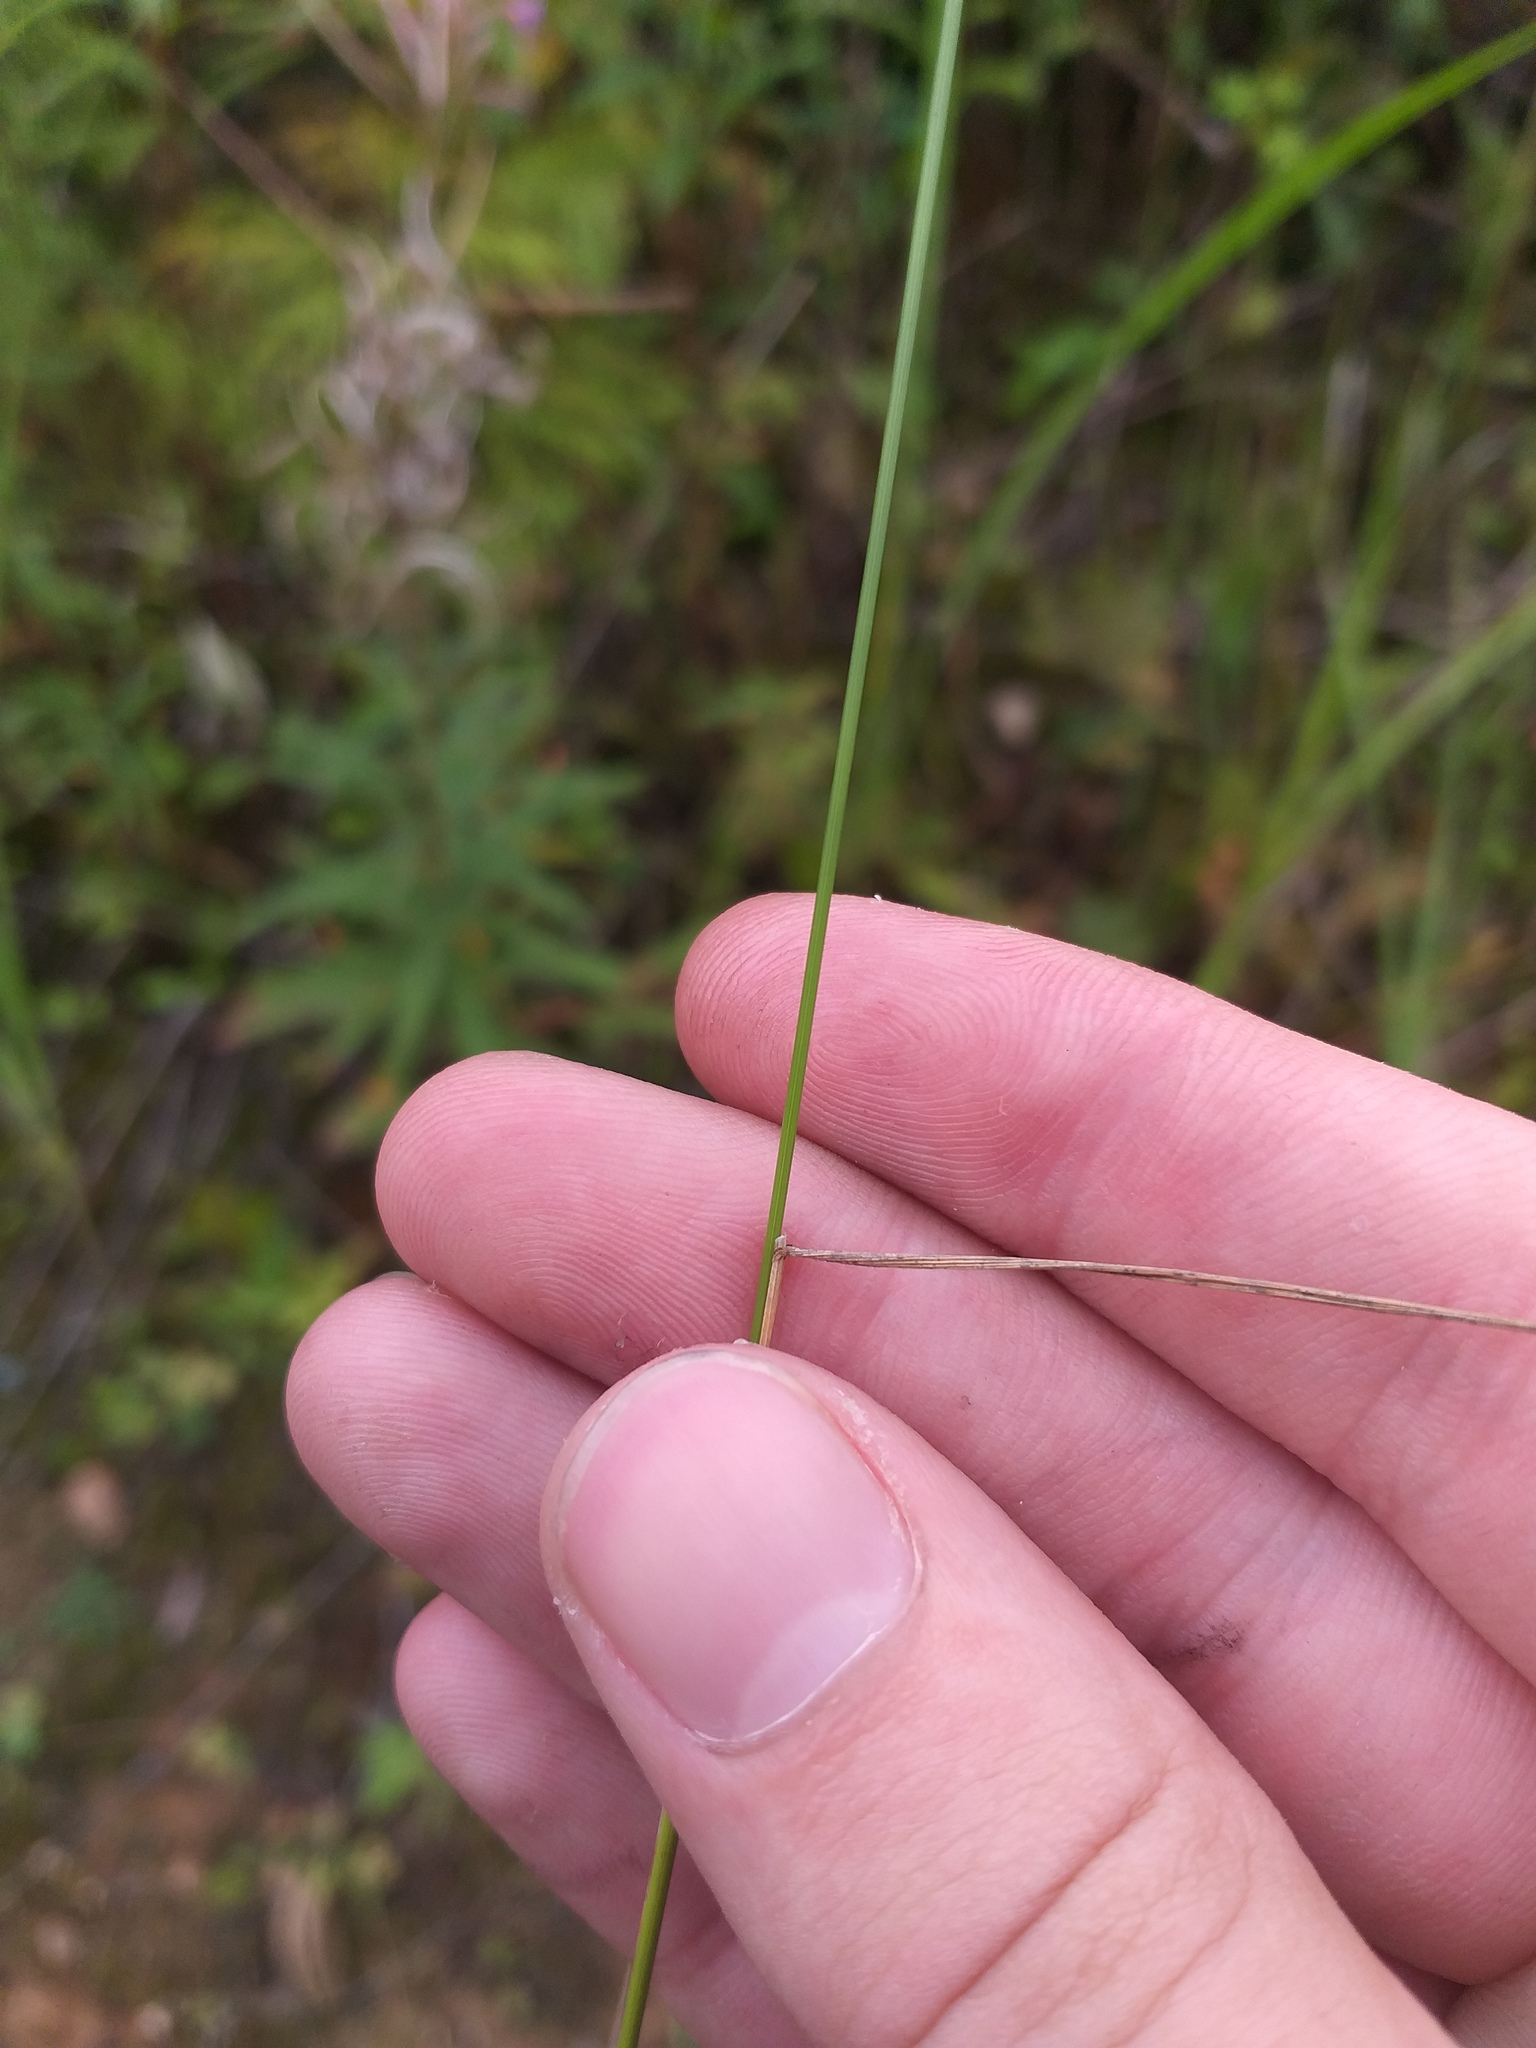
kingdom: Plantae
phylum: Tracheophyta
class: Liliopsida
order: Poales
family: Poaceae
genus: Poa
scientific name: Poa palustris
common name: Swamp meadow-grass
